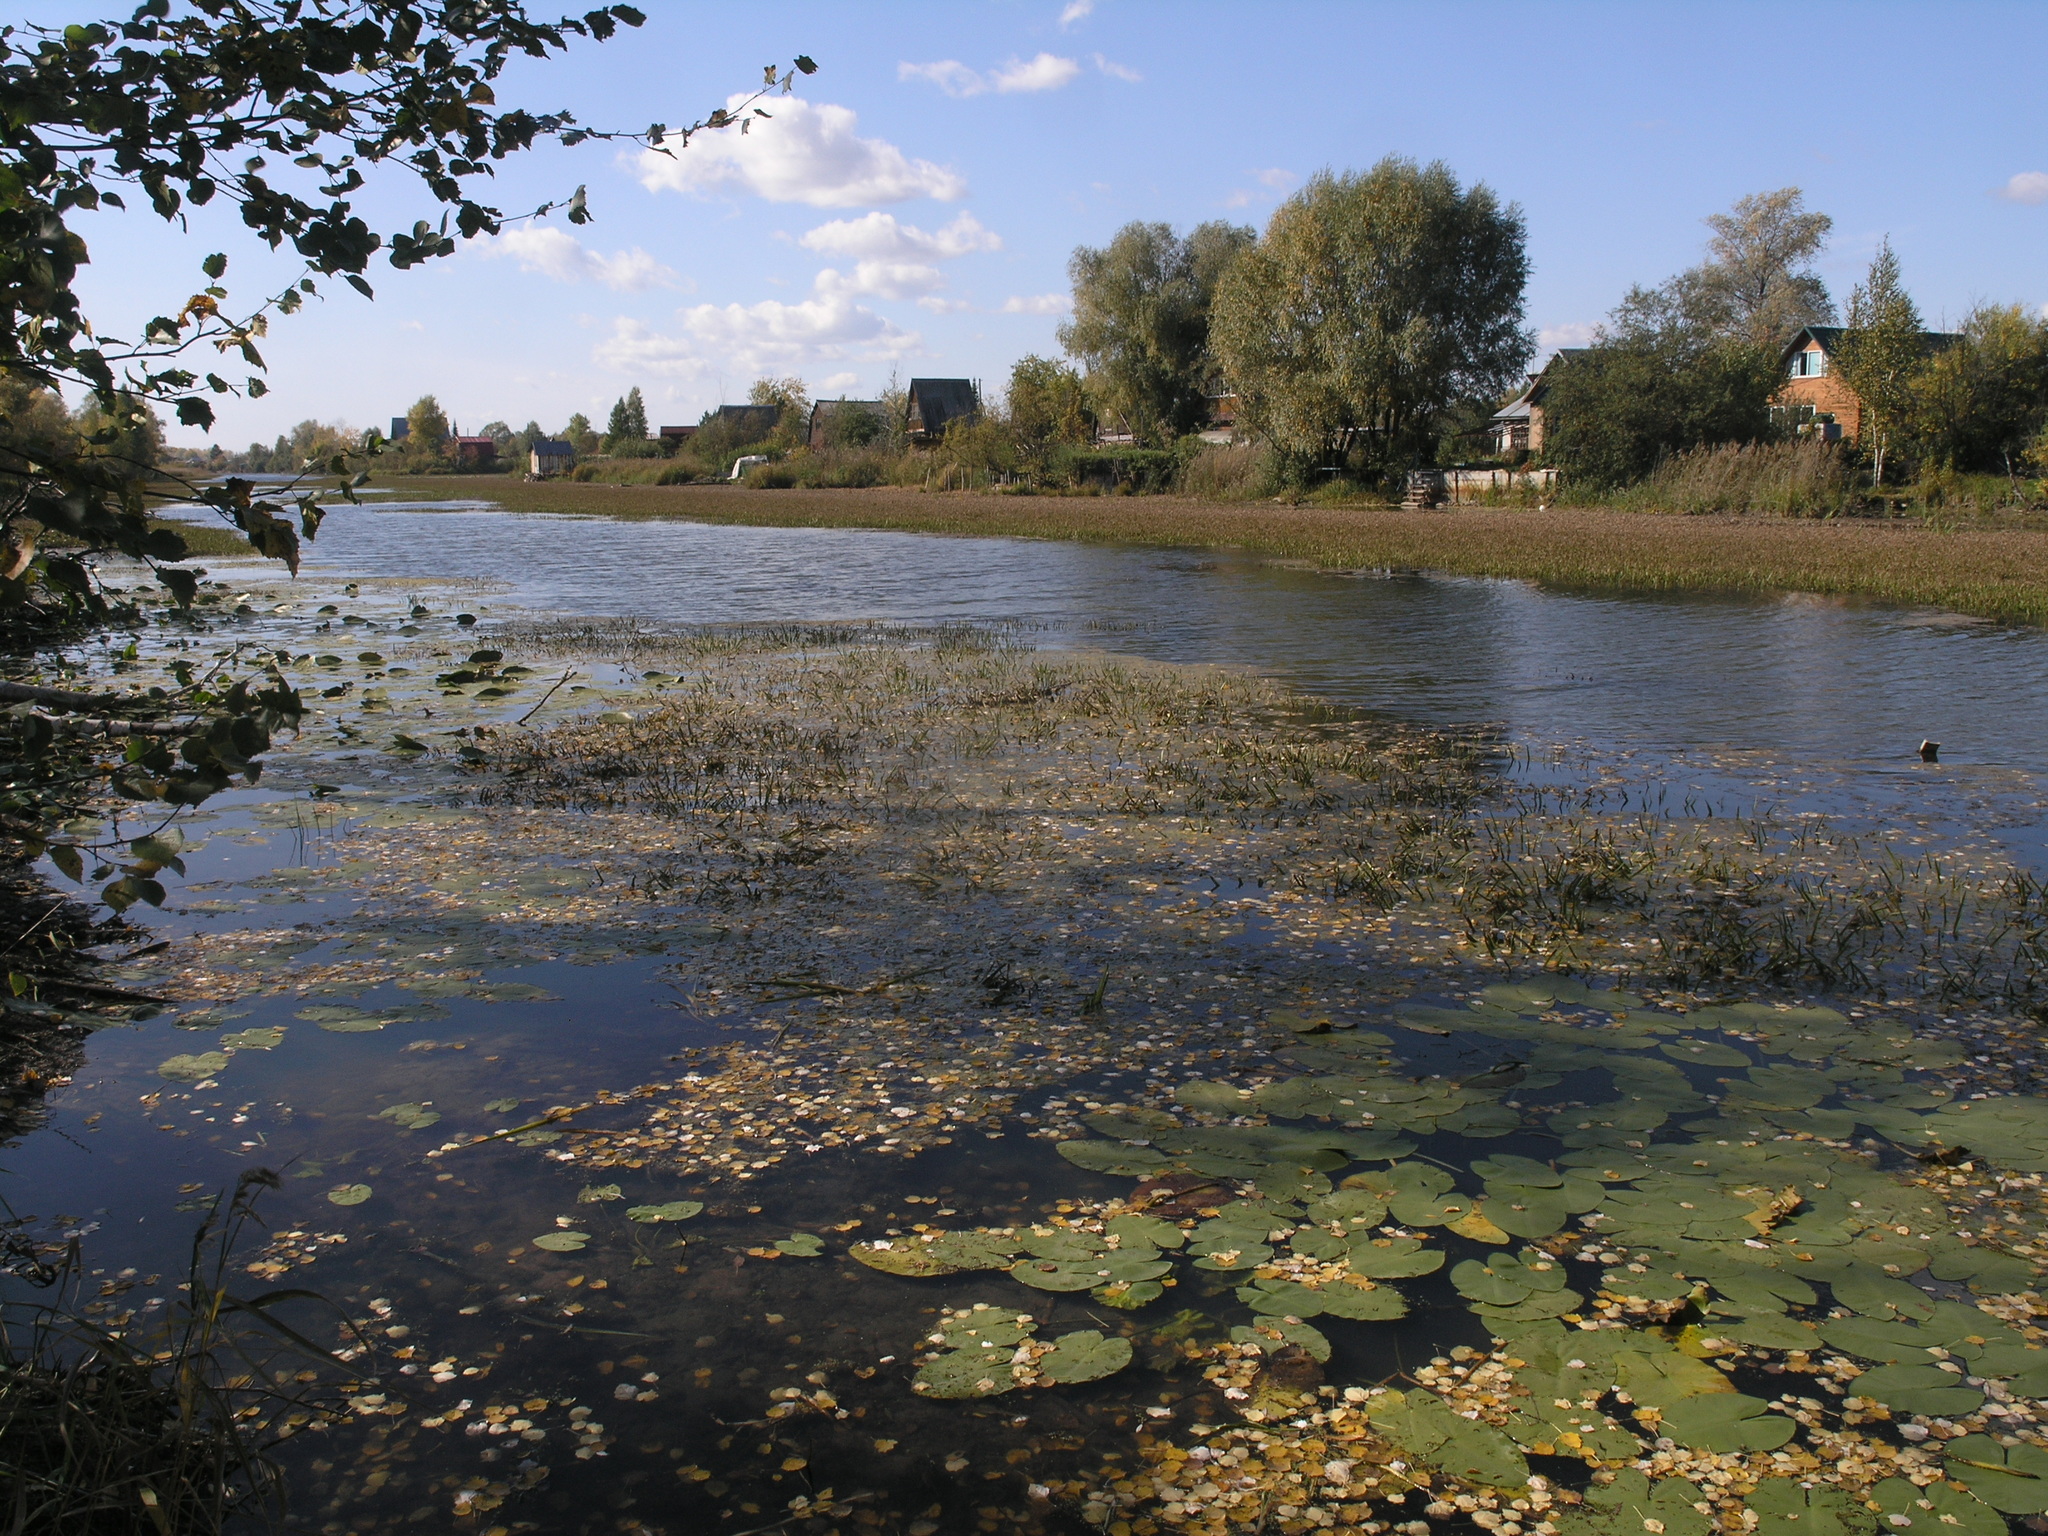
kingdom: Plantae
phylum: Tracheophyta
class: Magnoliopsida
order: Nymphaeales
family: Nymphaeaceae
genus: Nuphar
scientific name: Nuphar lutea
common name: Yellow water-lily
